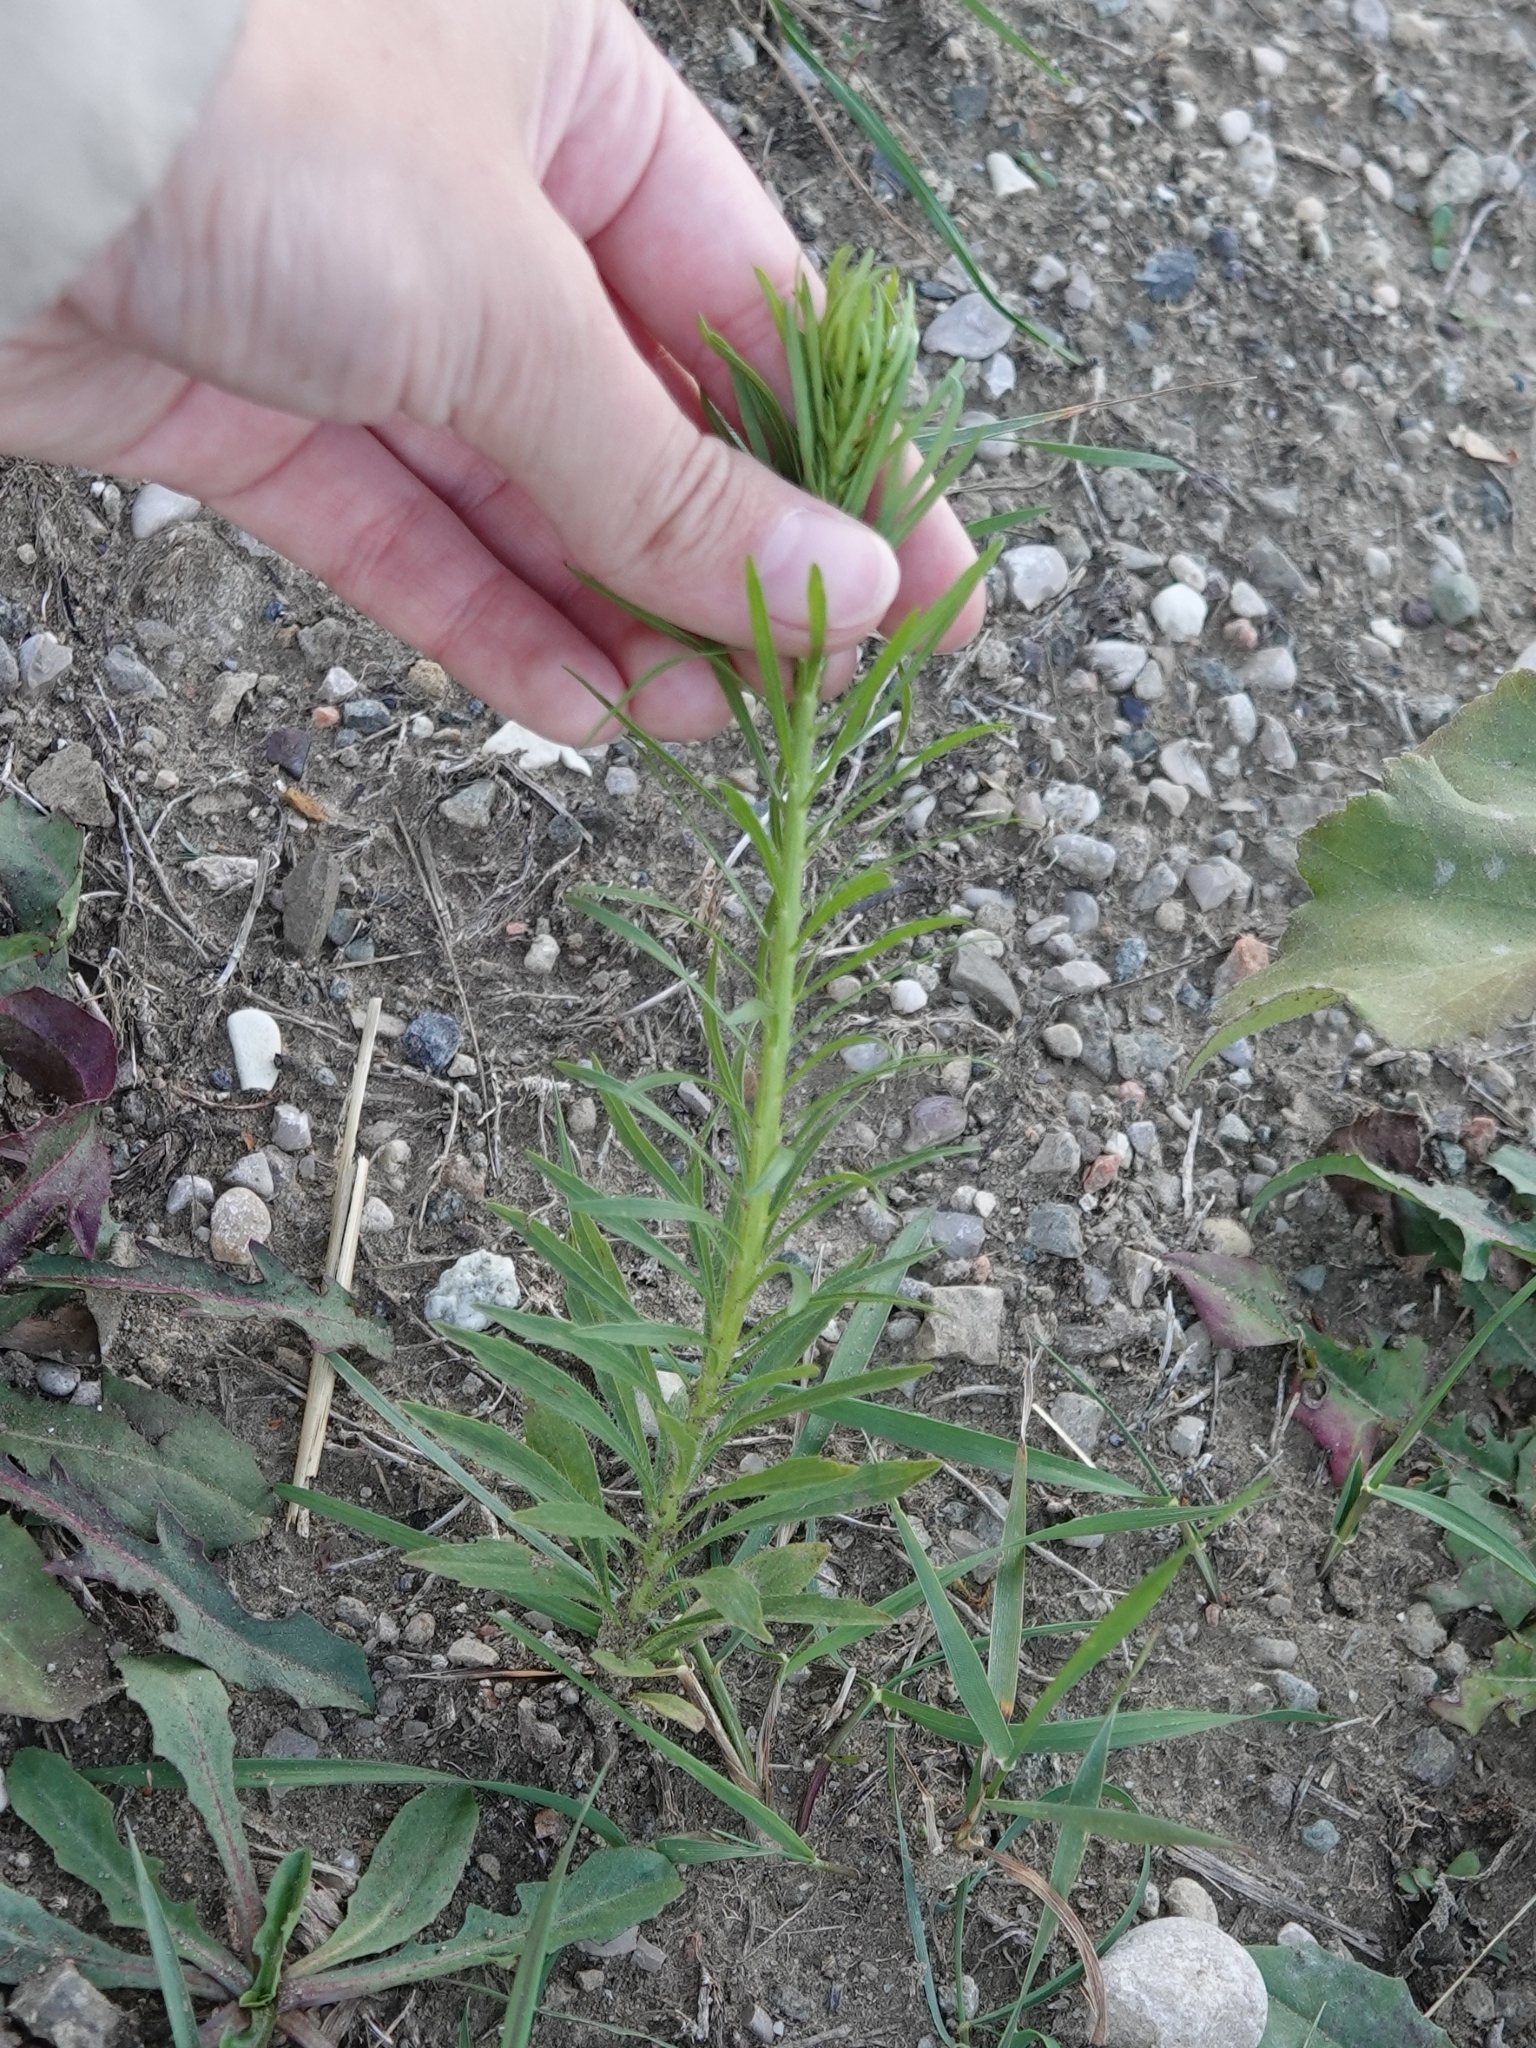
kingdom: Plantae
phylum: Tracheophyta
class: Magnoliopsida
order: Asterales
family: Asteraceae
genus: Erigeron
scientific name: Erigeron canadensis
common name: Canadian fleabane
